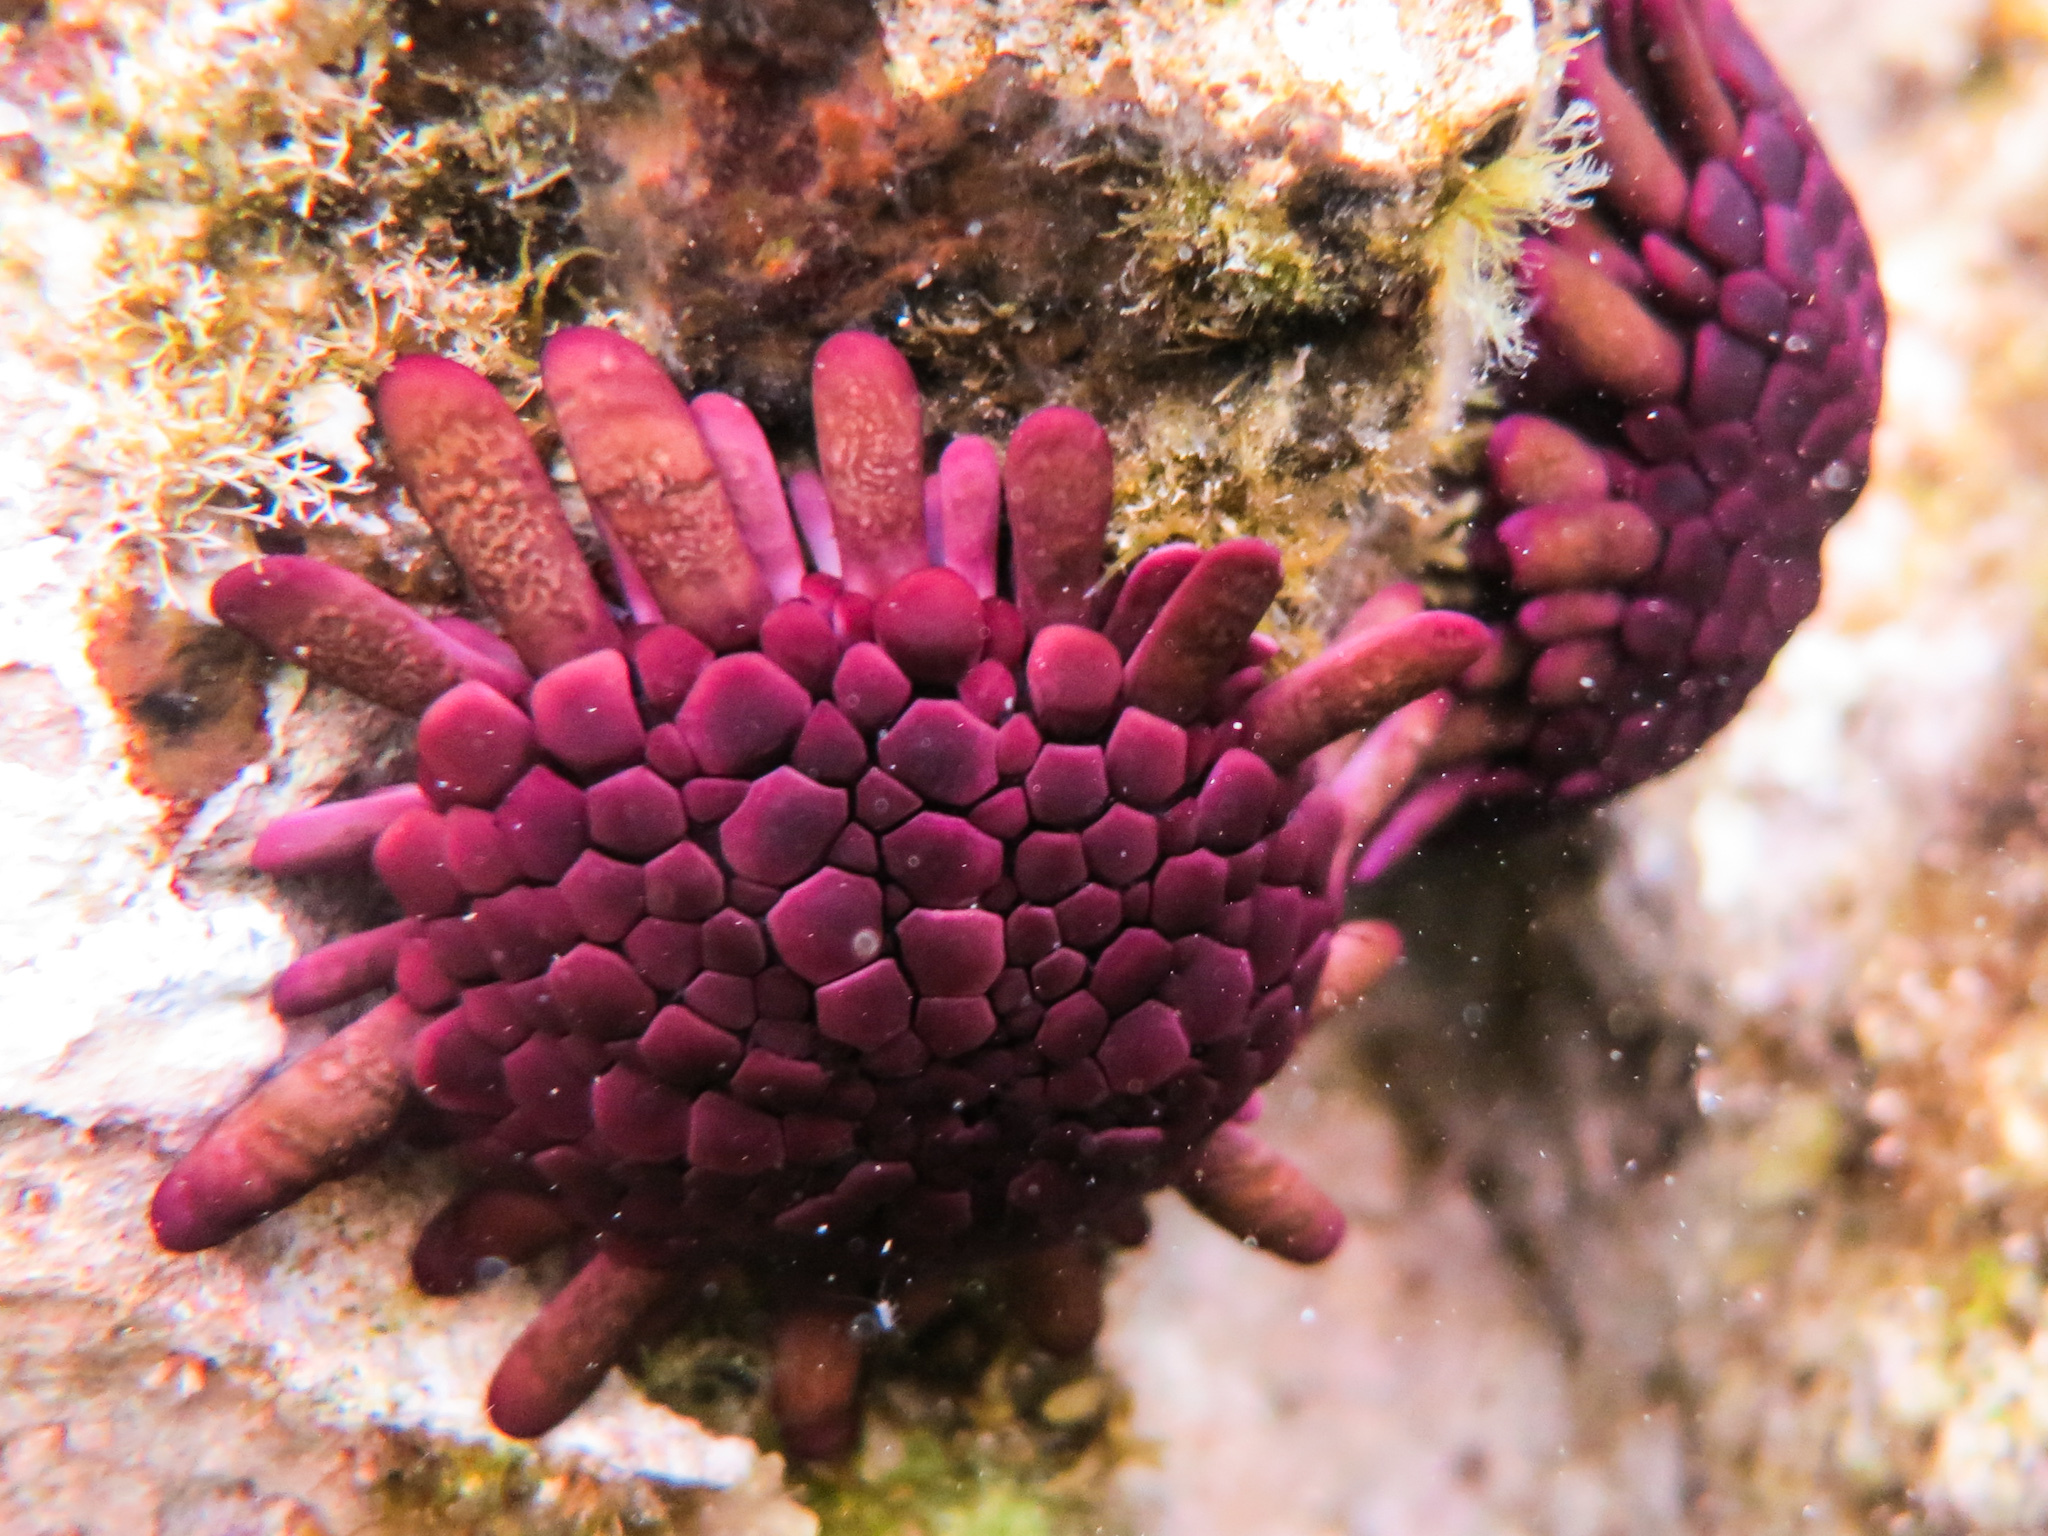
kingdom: Animalia
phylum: Echinodermata
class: Echinoidea
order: Camarodonta
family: Echinometridae
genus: Colobocentrotus
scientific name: Colobocentrotus atratus
